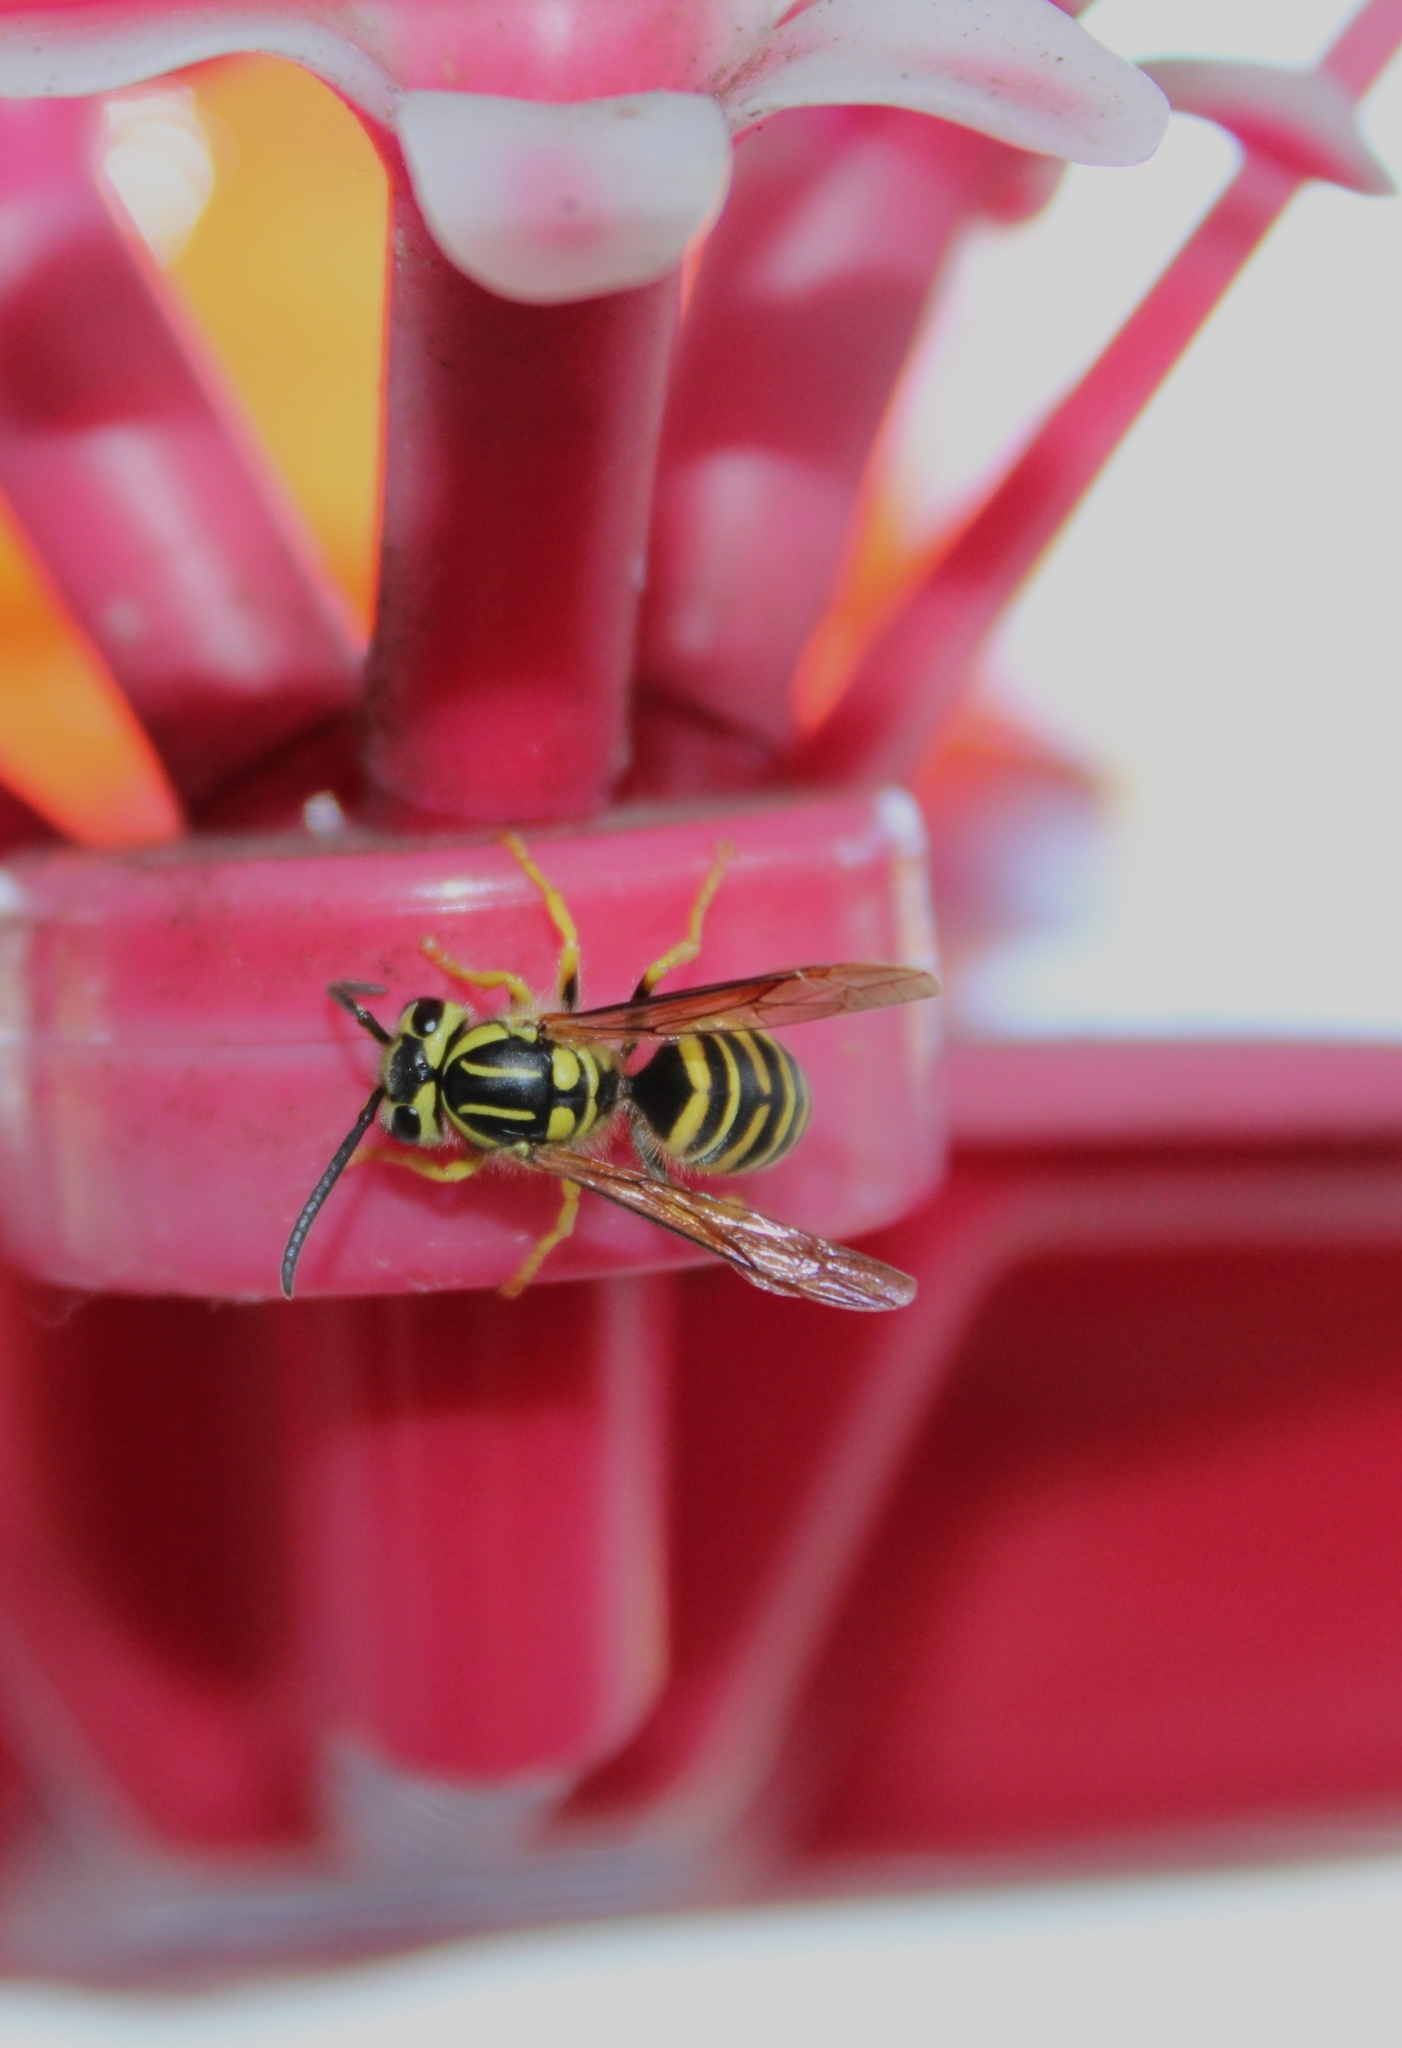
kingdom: Animalia
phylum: Arthropoda
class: Insecta
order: Hymenoptera
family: Vespidae
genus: Vespula
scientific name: Vespula squamosa
